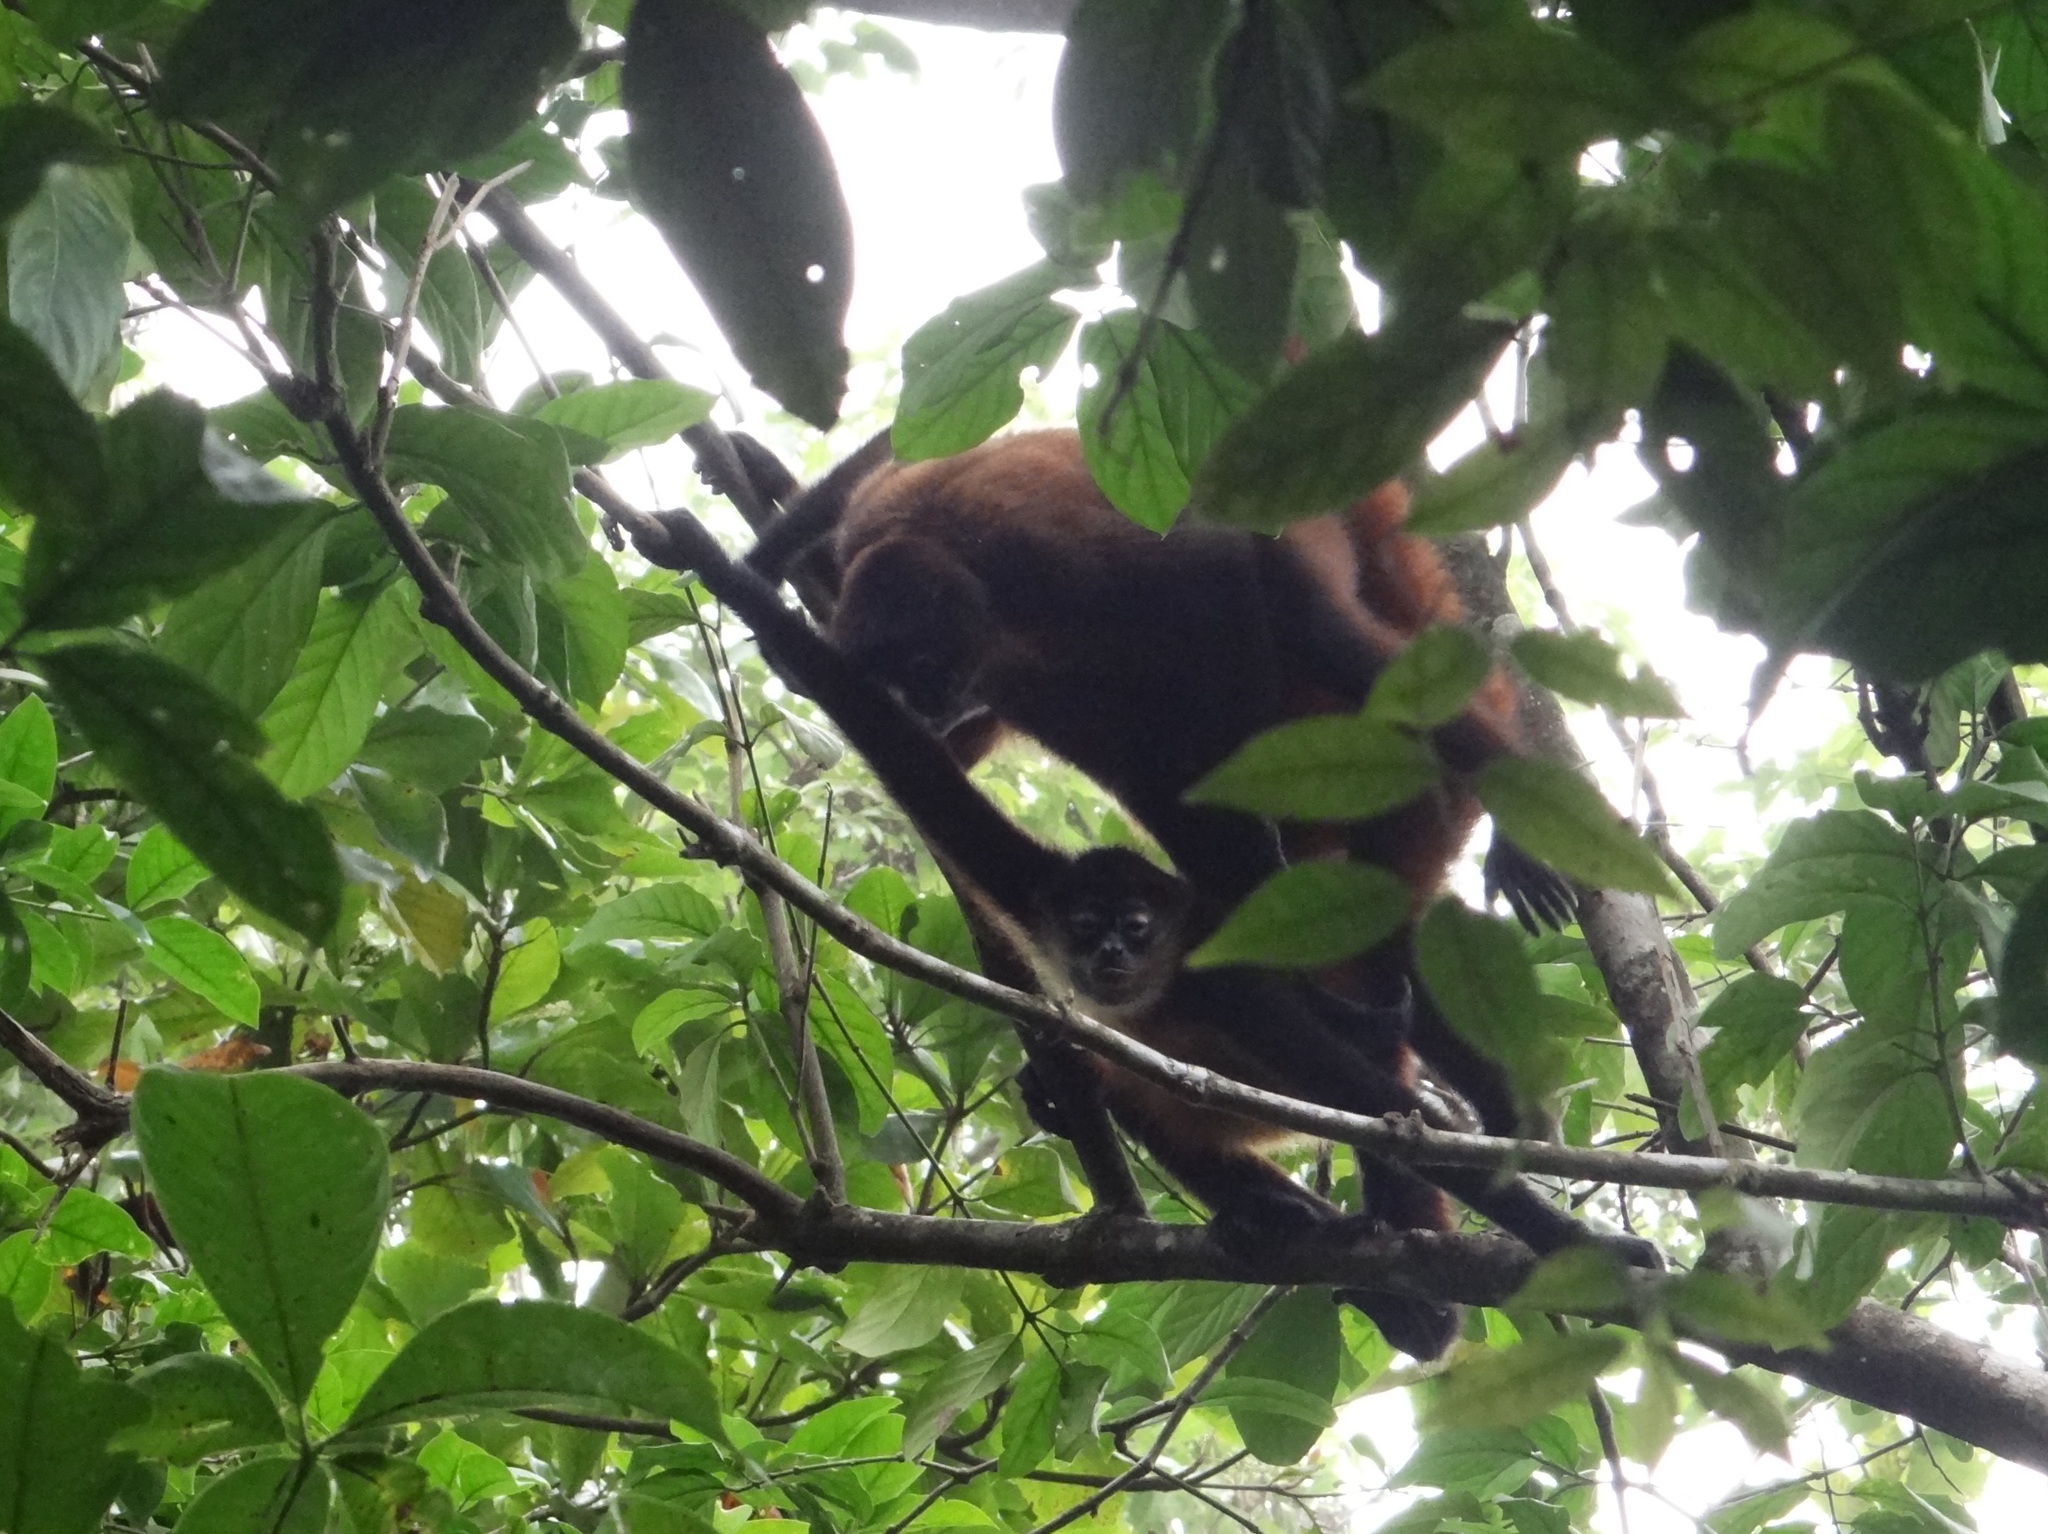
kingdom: Animalia
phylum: Chordata
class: Mammalia
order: Primates
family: Atelidae
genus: Ateles
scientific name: Ateles geoffroyi
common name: Black-handed spider monkey
